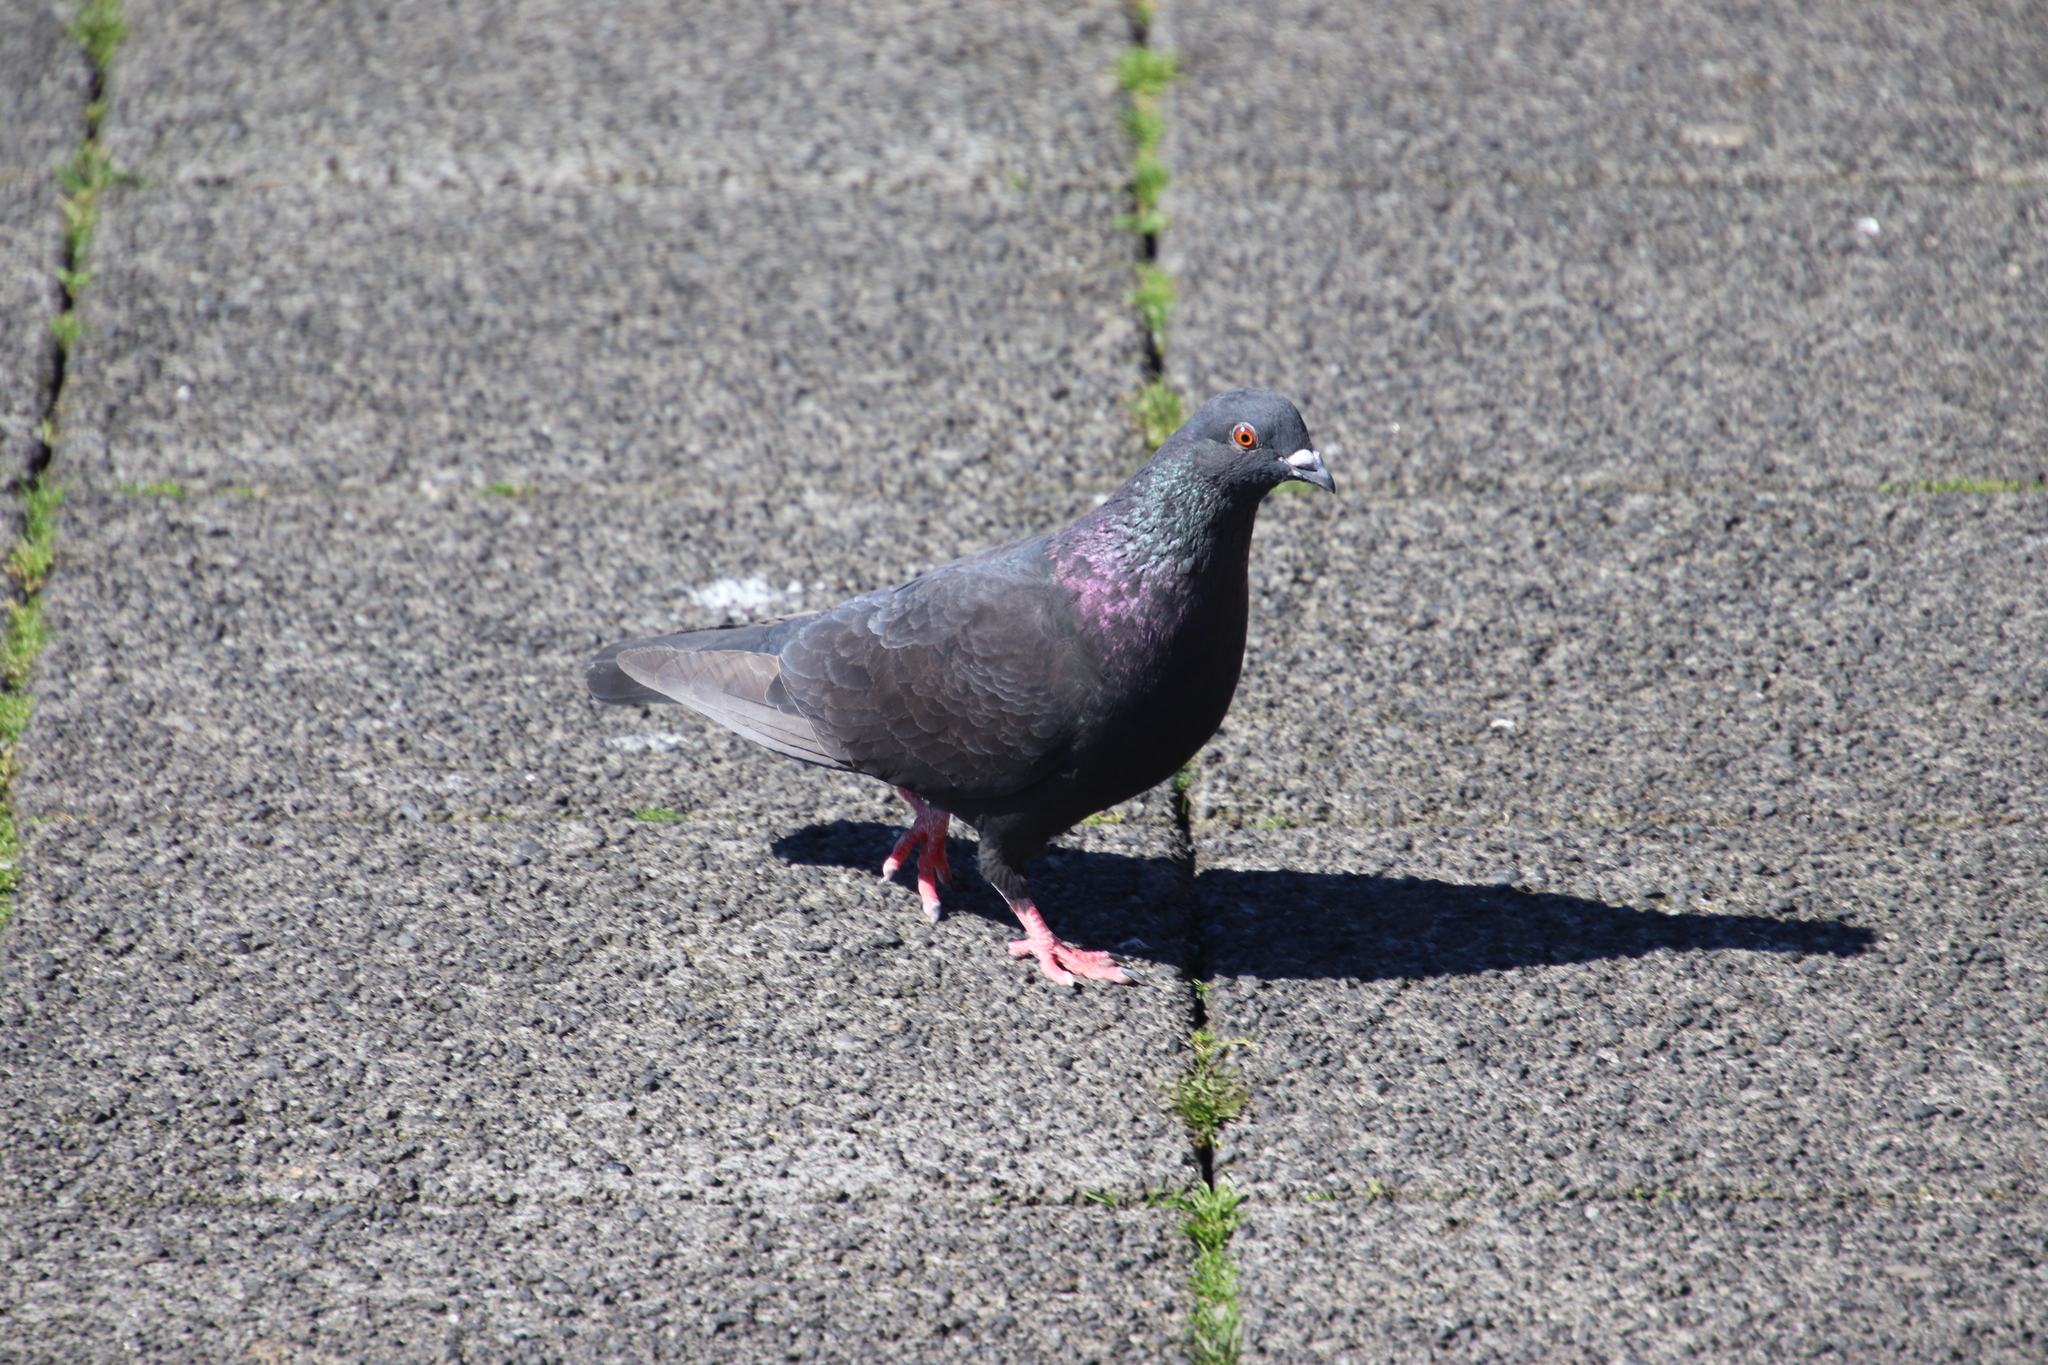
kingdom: Animalia
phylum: Chordata
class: Aves
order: Columbiformes
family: Columbidae
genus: Columba
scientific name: Columba livia
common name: Rock pigeon
